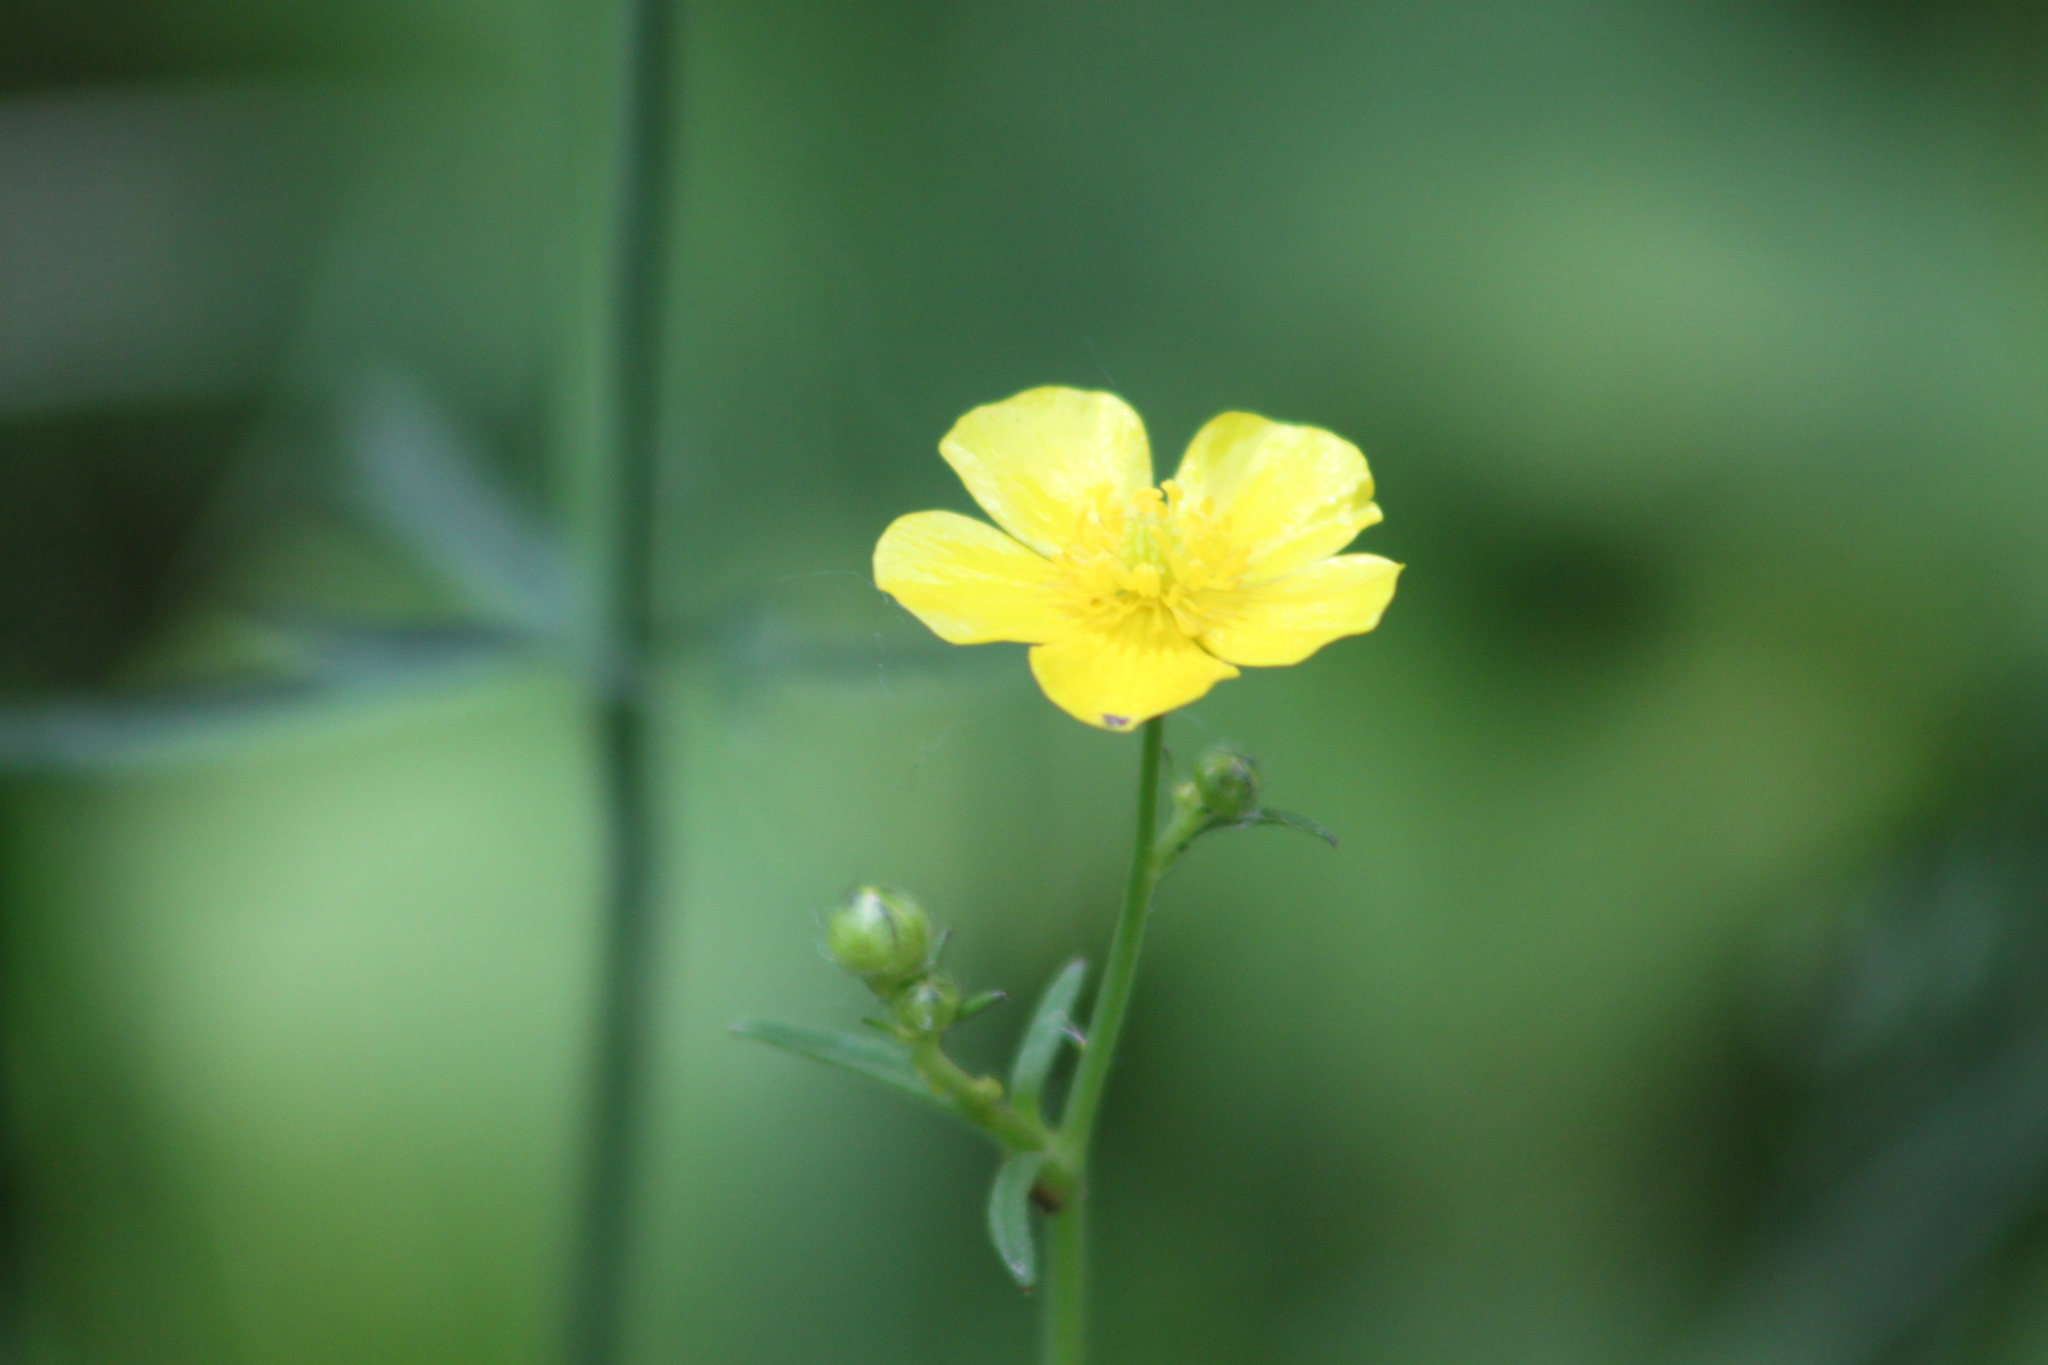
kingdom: Plantae
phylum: Tracheophyta
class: Magnoliopsida
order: Ranunculales
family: Ranunculaceae
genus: Ranunculus
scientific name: Ranunculus acris
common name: Meadow buttercup
